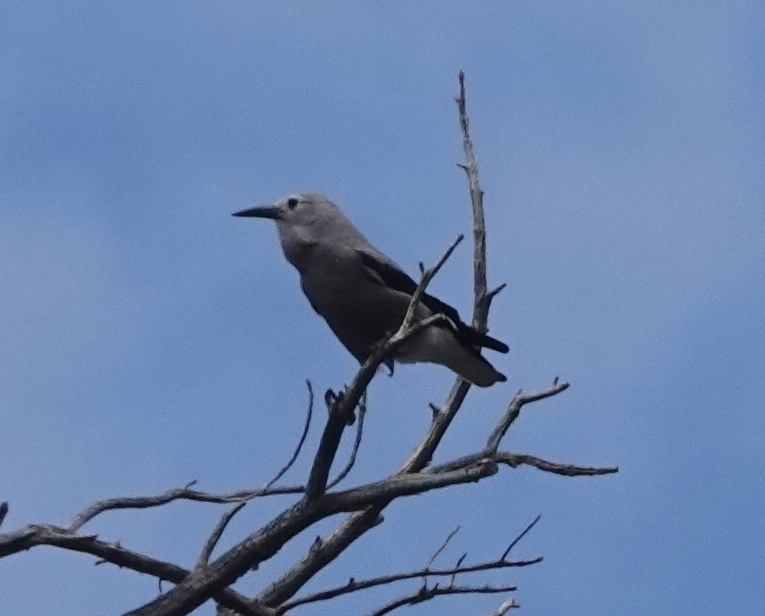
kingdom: Animalia
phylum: Chordata
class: Aves
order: Passeriformes
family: Corvidae
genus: Nucifraga
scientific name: Nucifraga columbiana
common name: Clark's nutcracker
